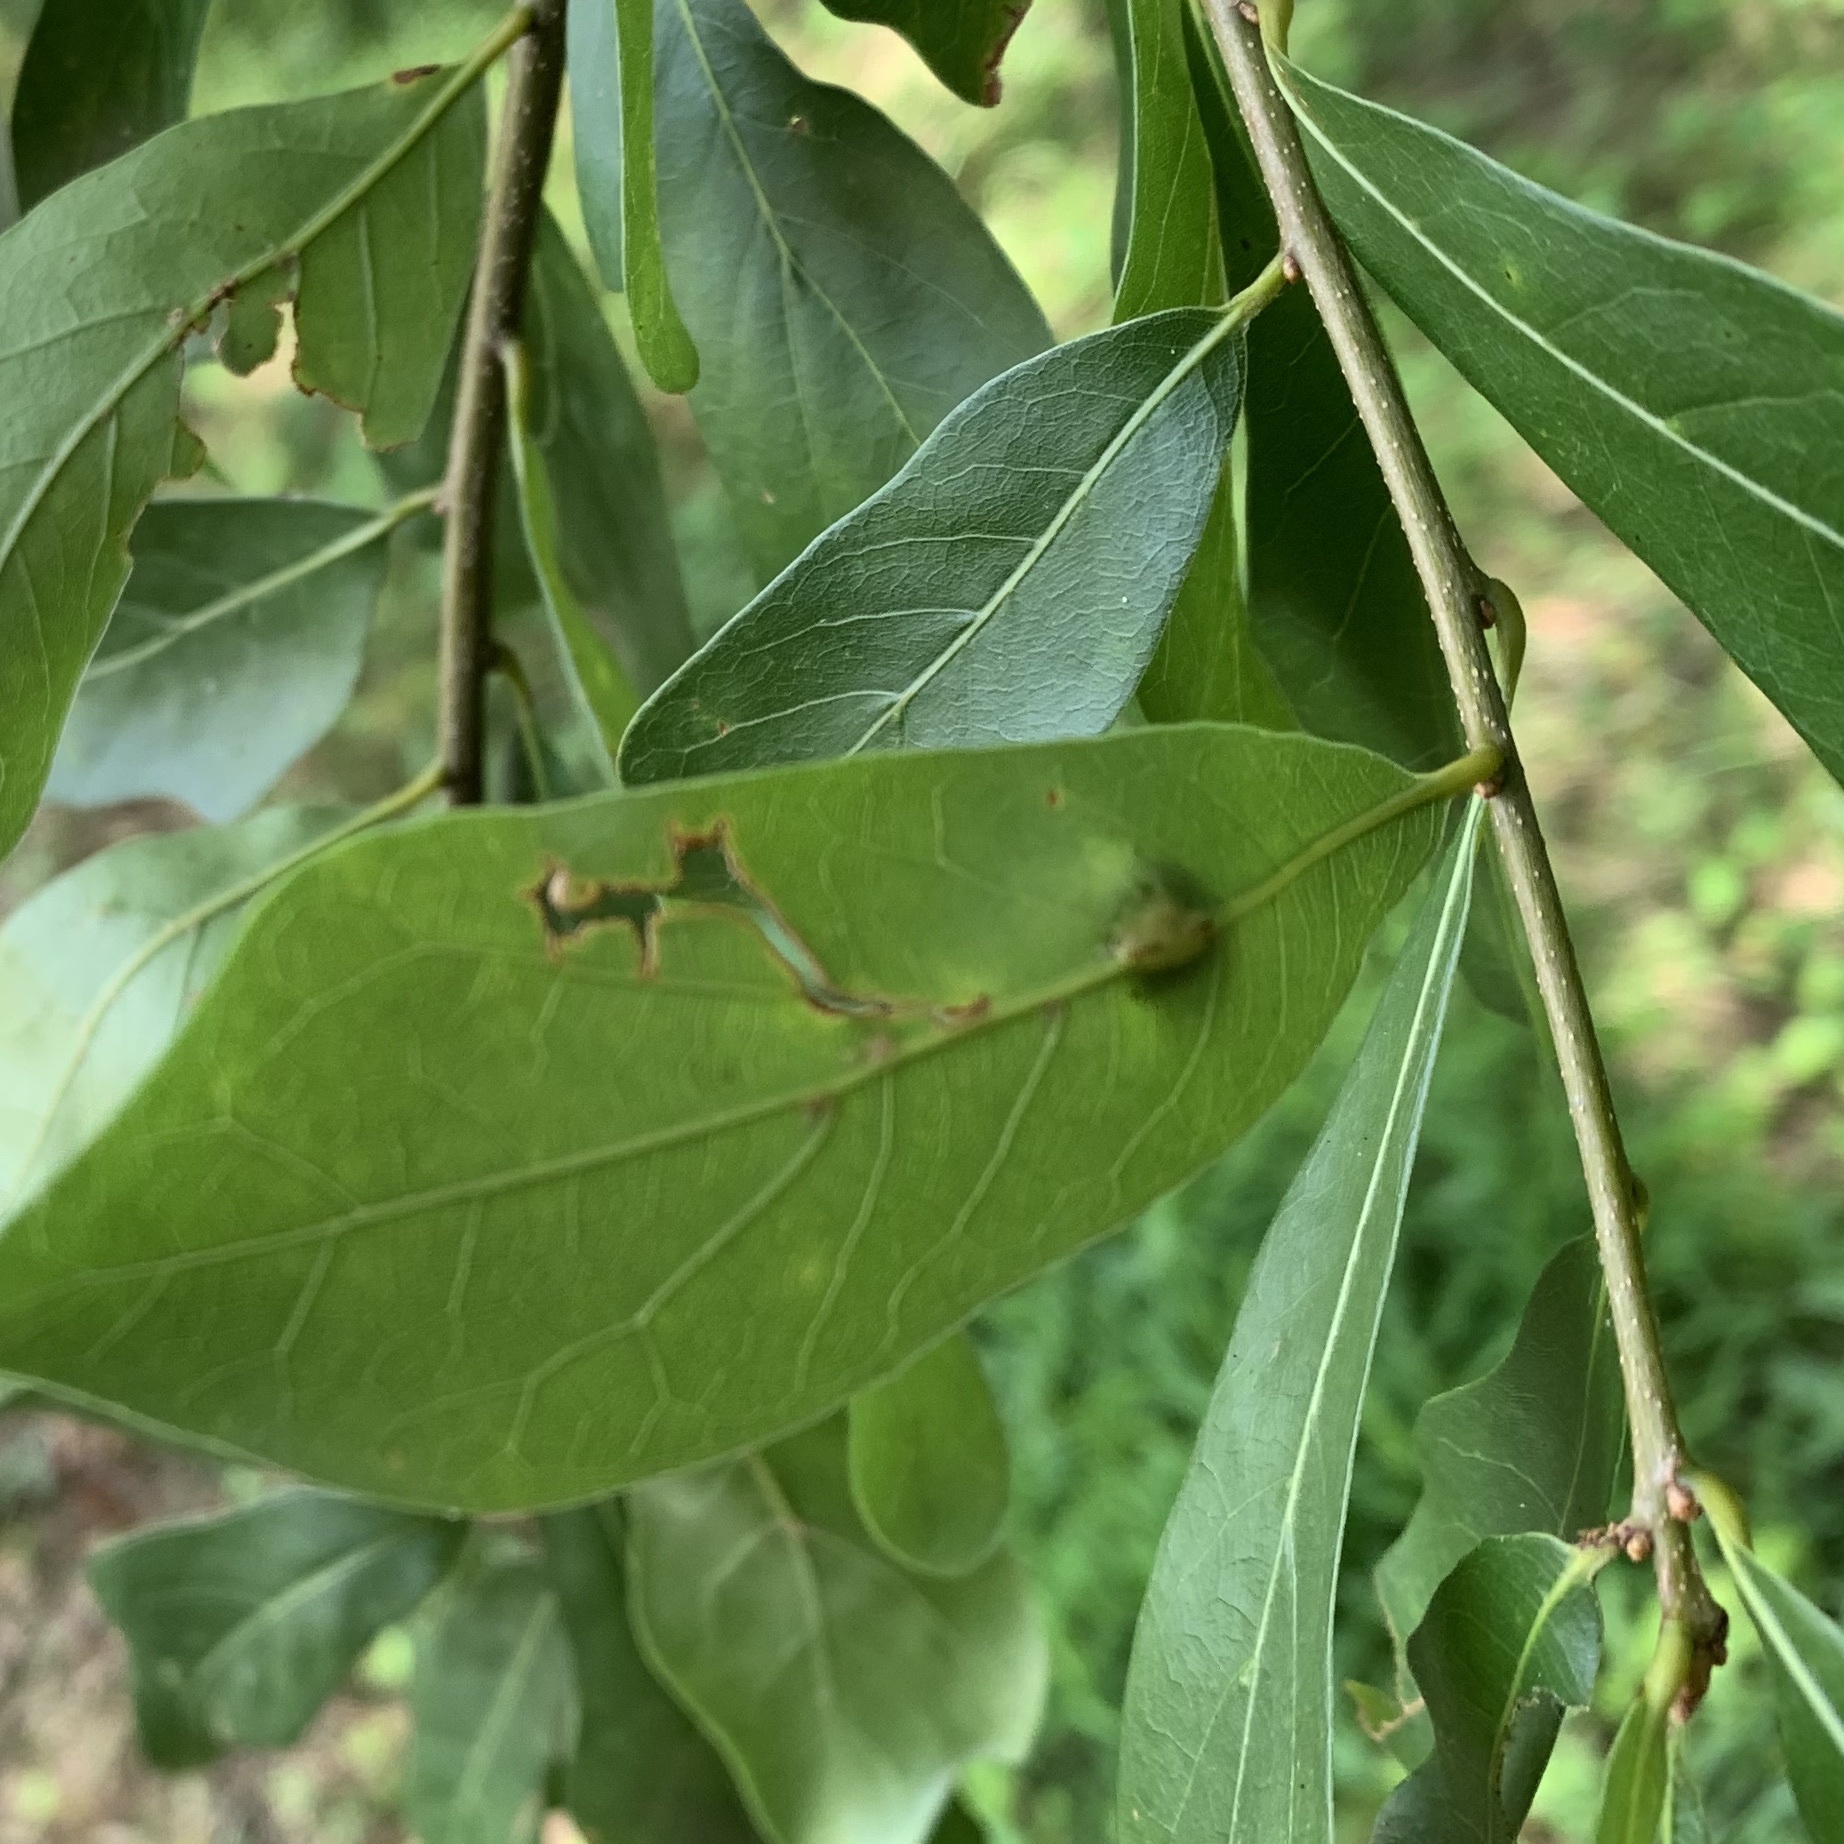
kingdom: Animalia
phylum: Arthropoda
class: Insecta
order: Diptera
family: Cecidomyiidae
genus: Polystepha
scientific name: Polystepha pilulae
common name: Oak leaf gall midge
